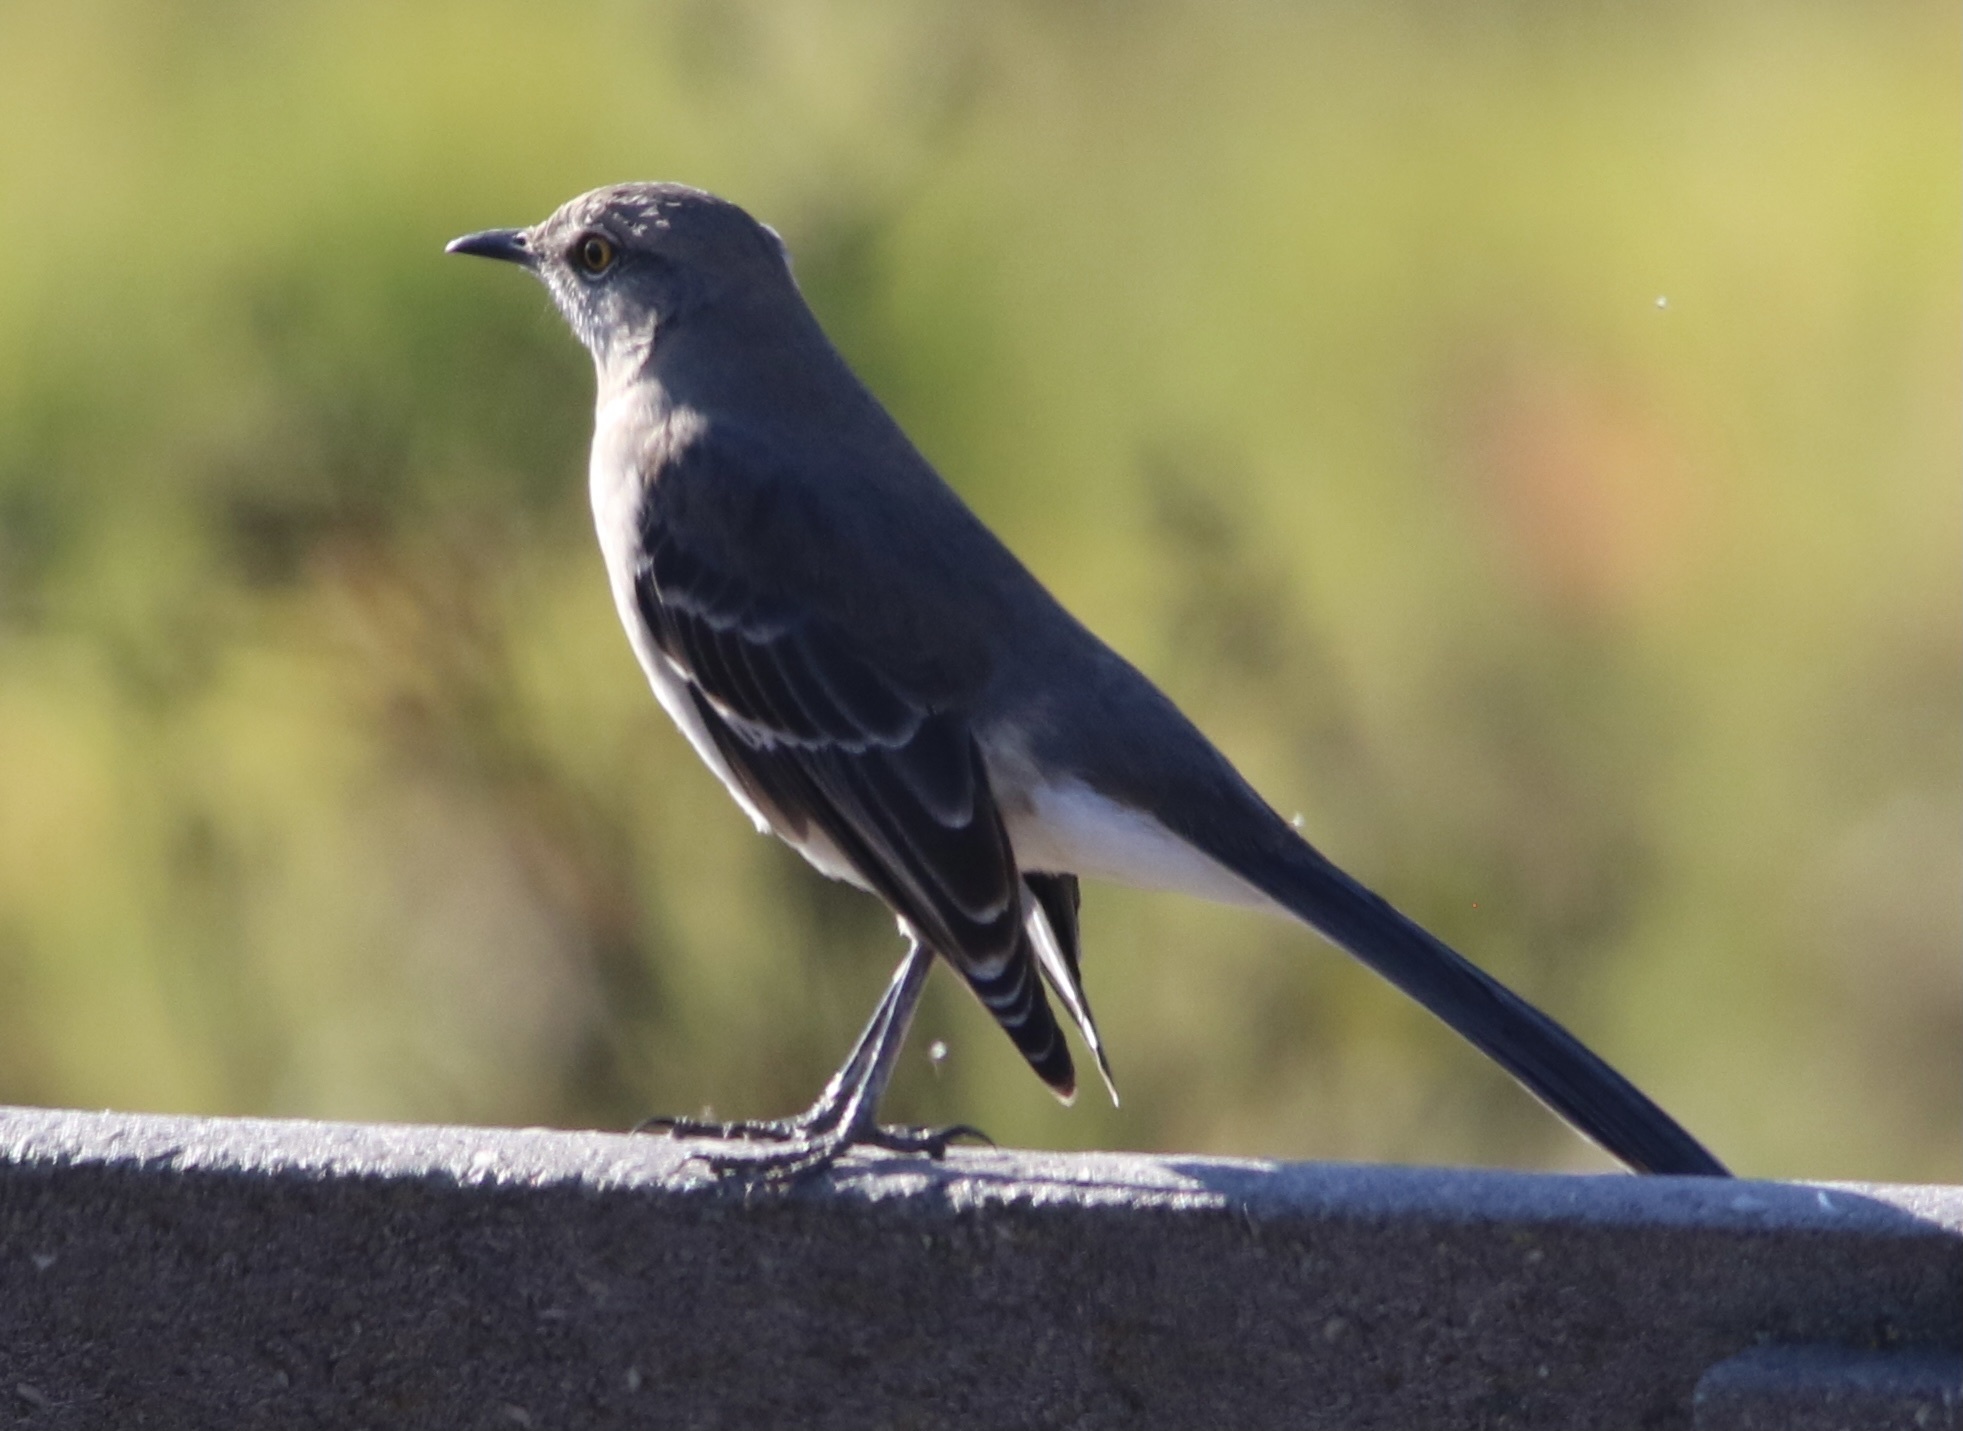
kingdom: Animalia
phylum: Chordata
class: Aves
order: Passeriformes
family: Mimidae
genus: Mimus
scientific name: Mimus polyglottos
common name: Northern mockingbird
